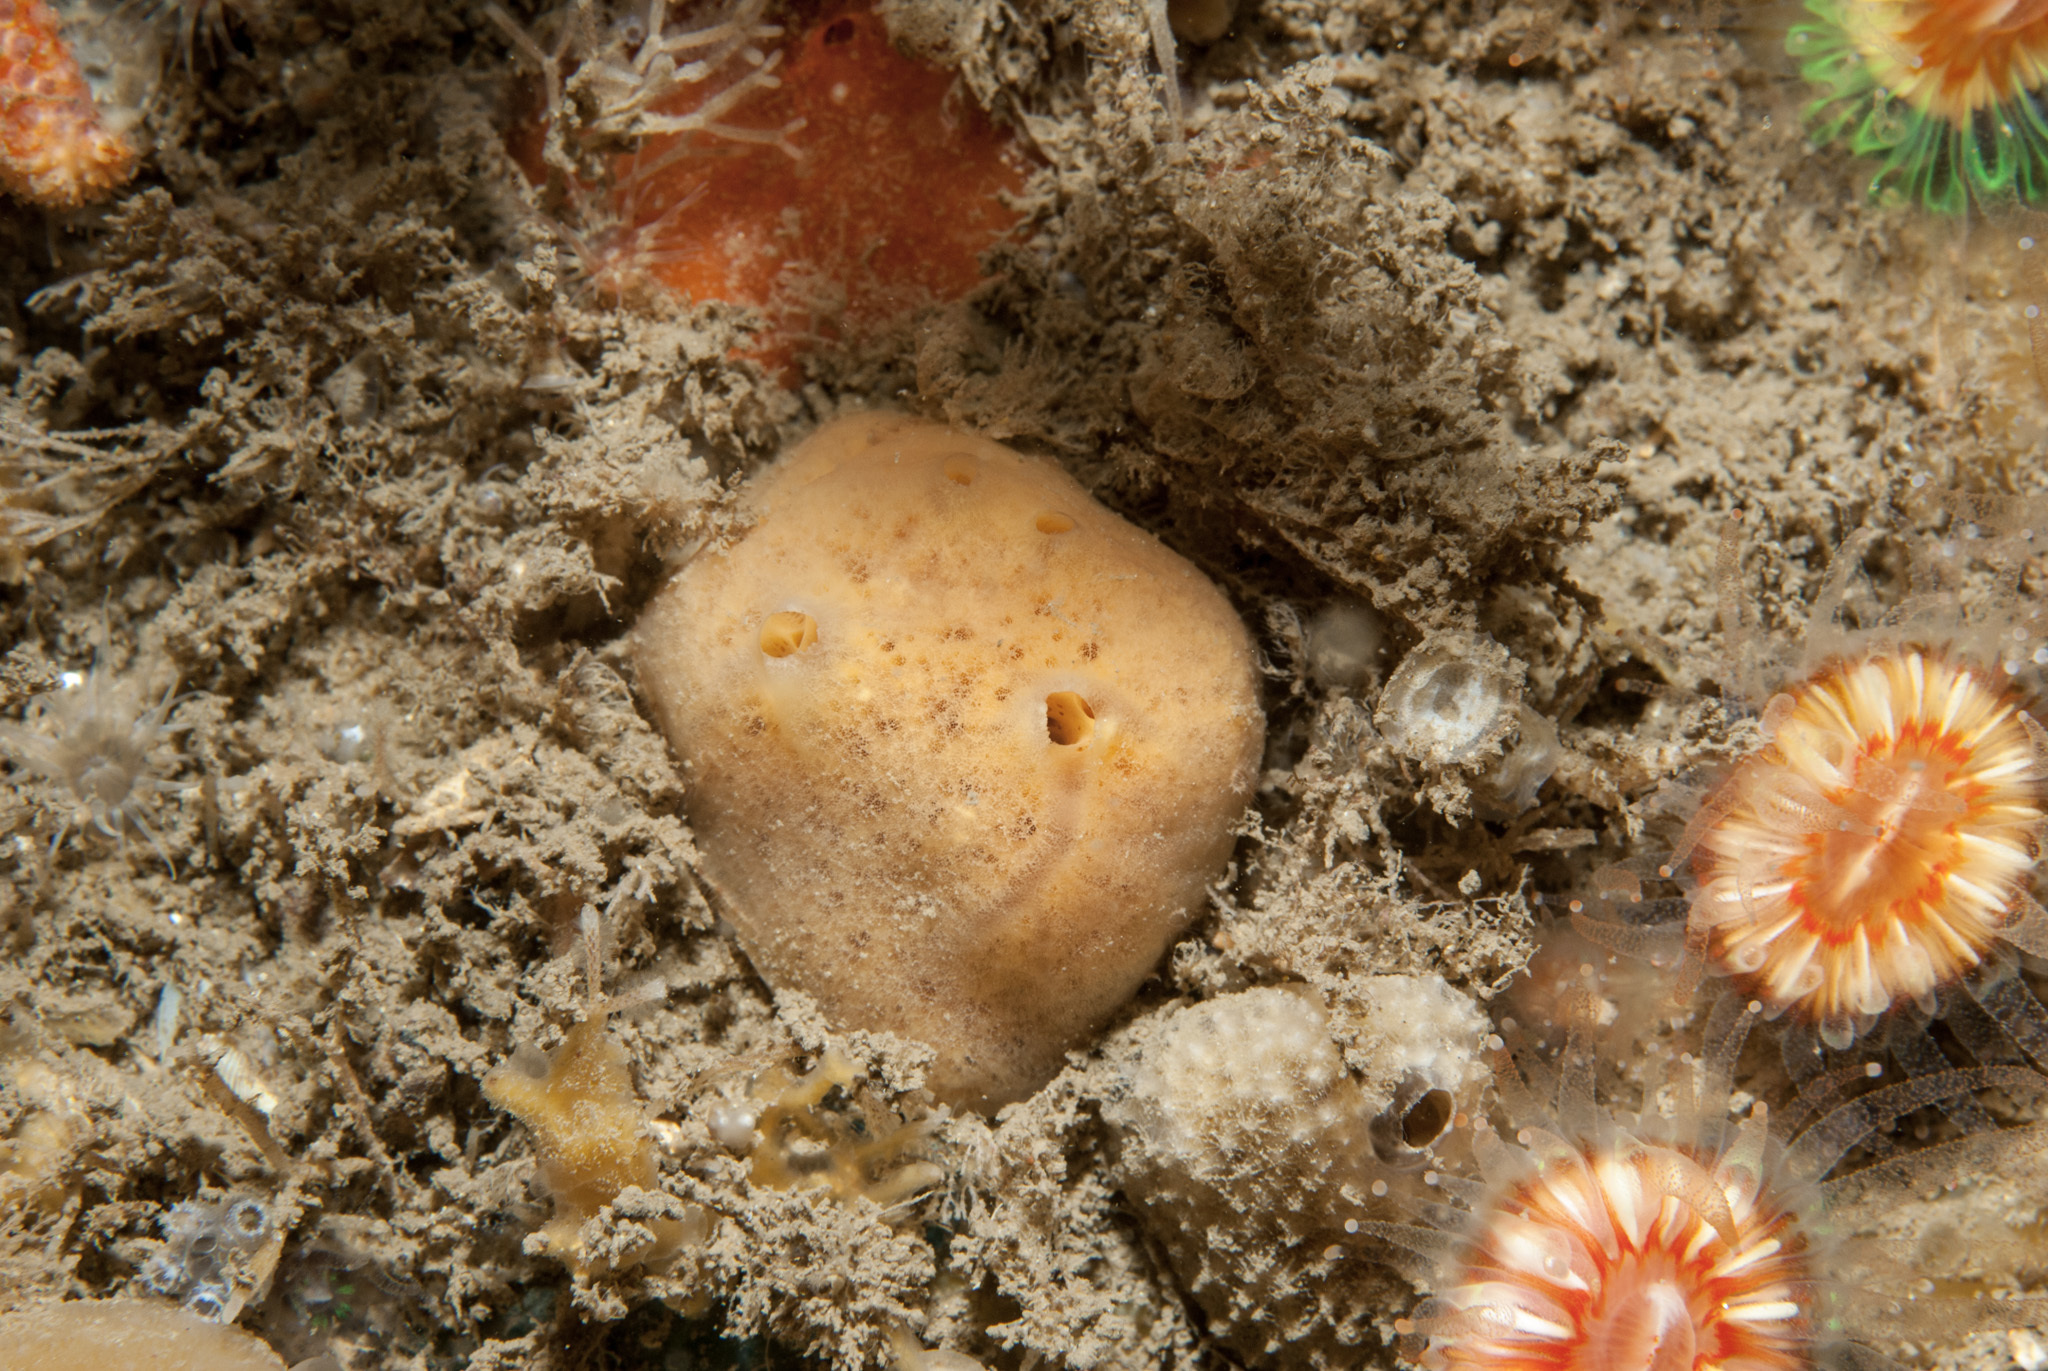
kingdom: Animalia
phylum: Porifera
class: Demospongiae
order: Poecilosclerida
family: Myxillidae
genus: Myxilla
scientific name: Myxilla fimbriata
